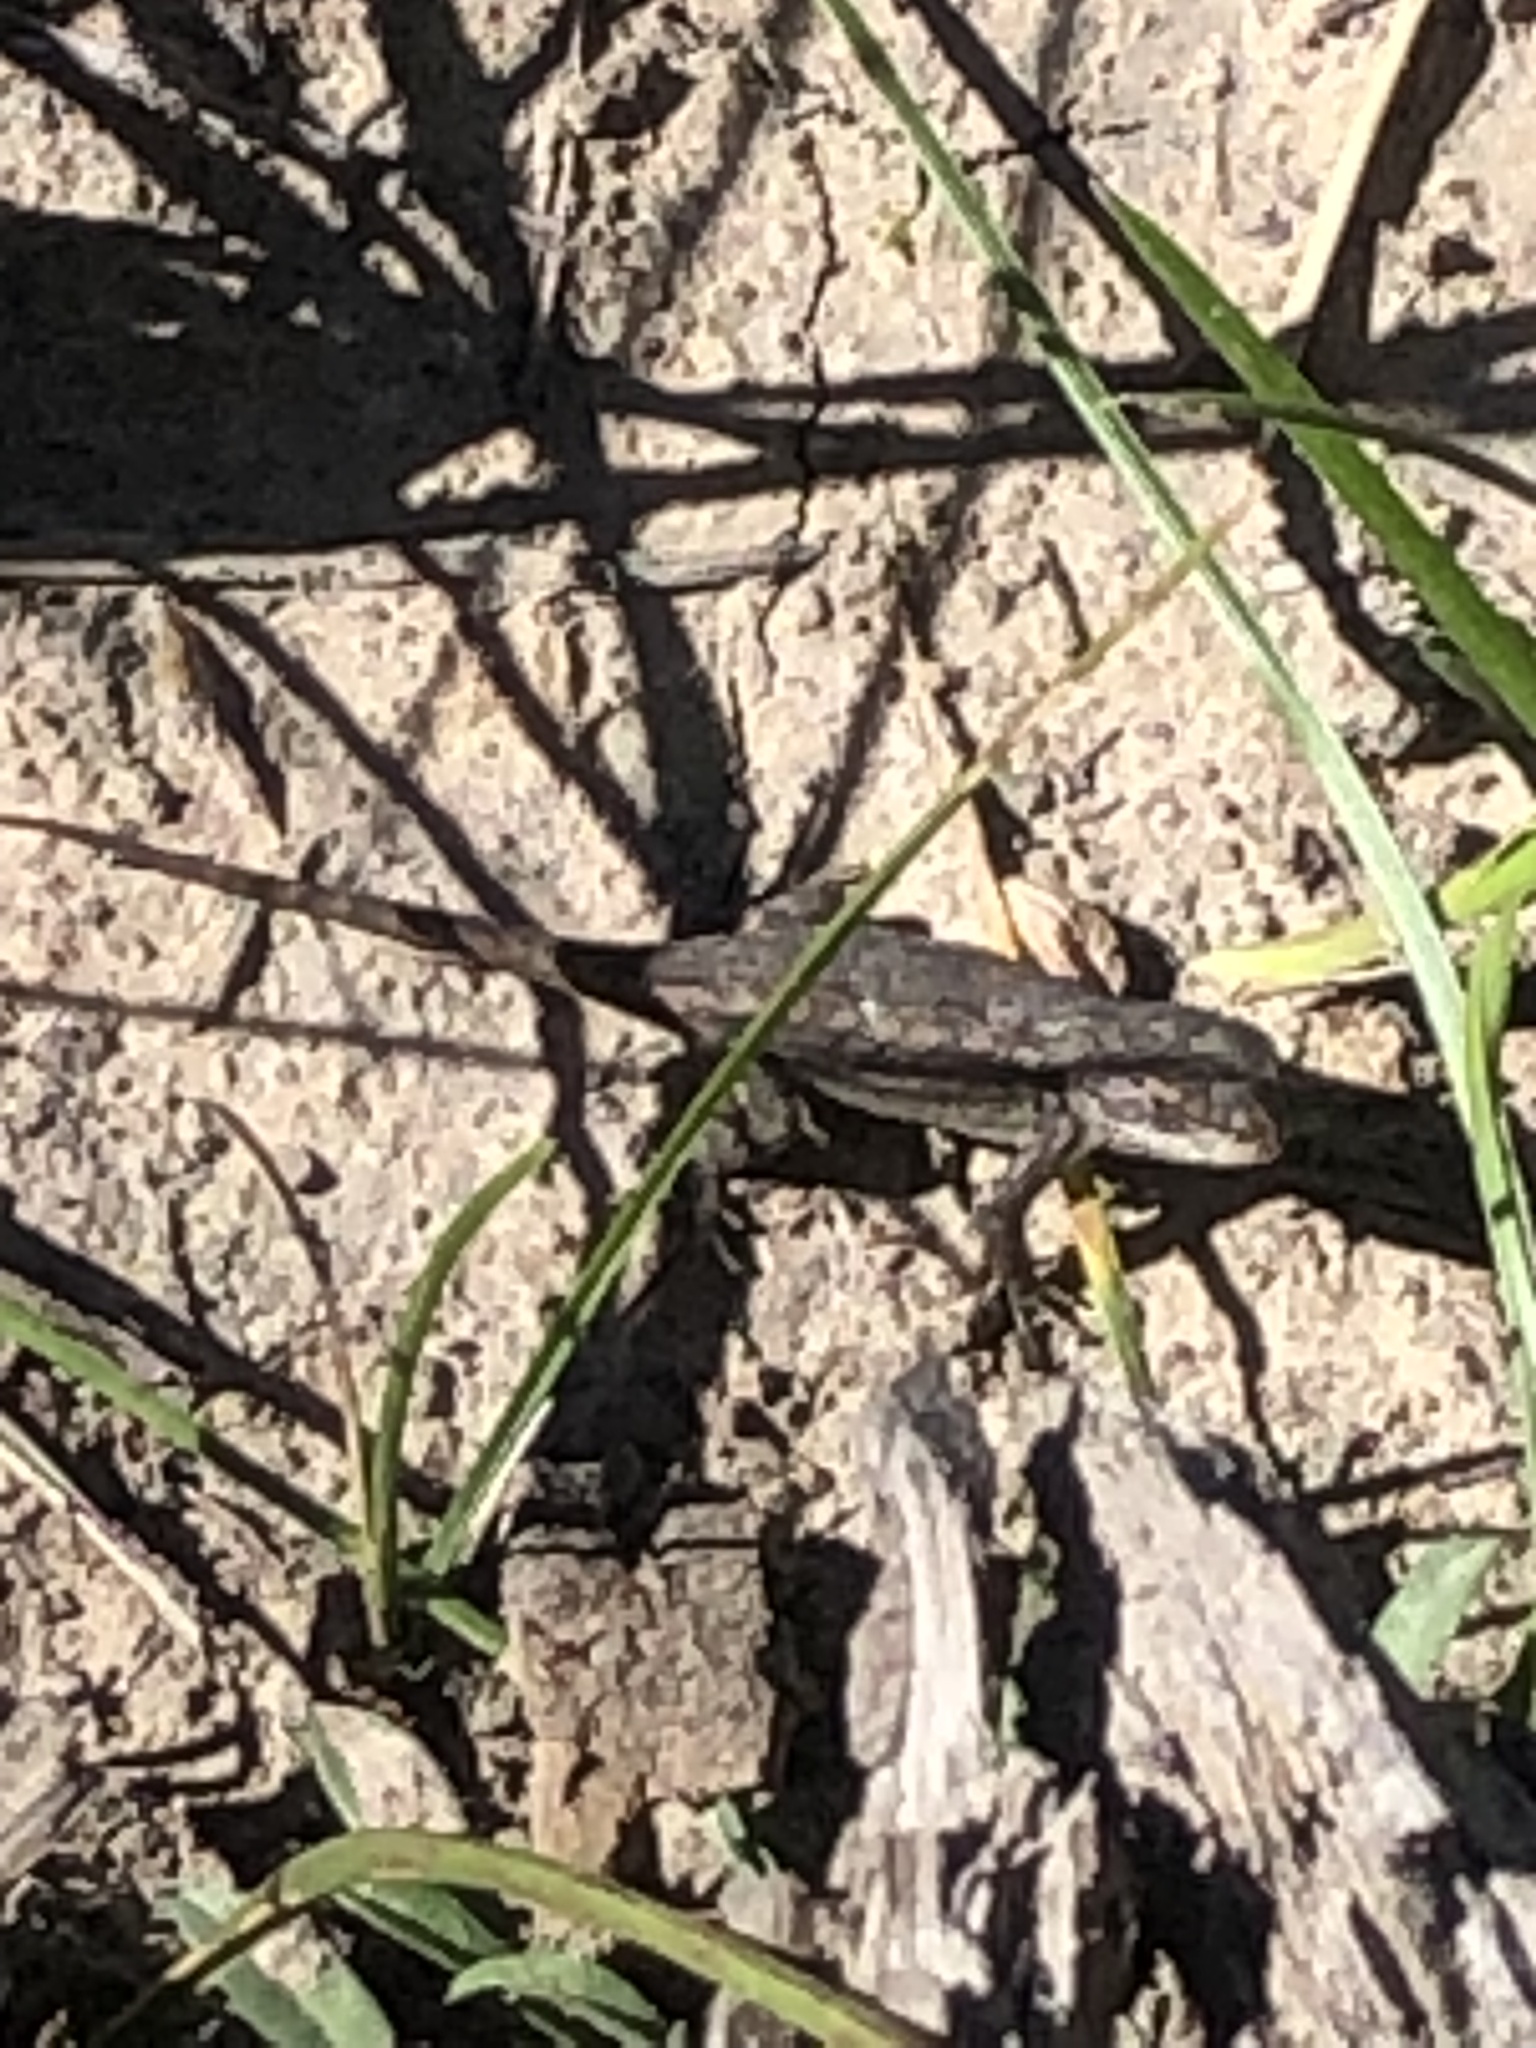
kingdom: Animalia
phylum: Chordata
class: Squamata
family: Phrynosomatidae
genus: Sceloporus
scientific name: Sceloporus tristichus
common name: Plateau fence lizard
